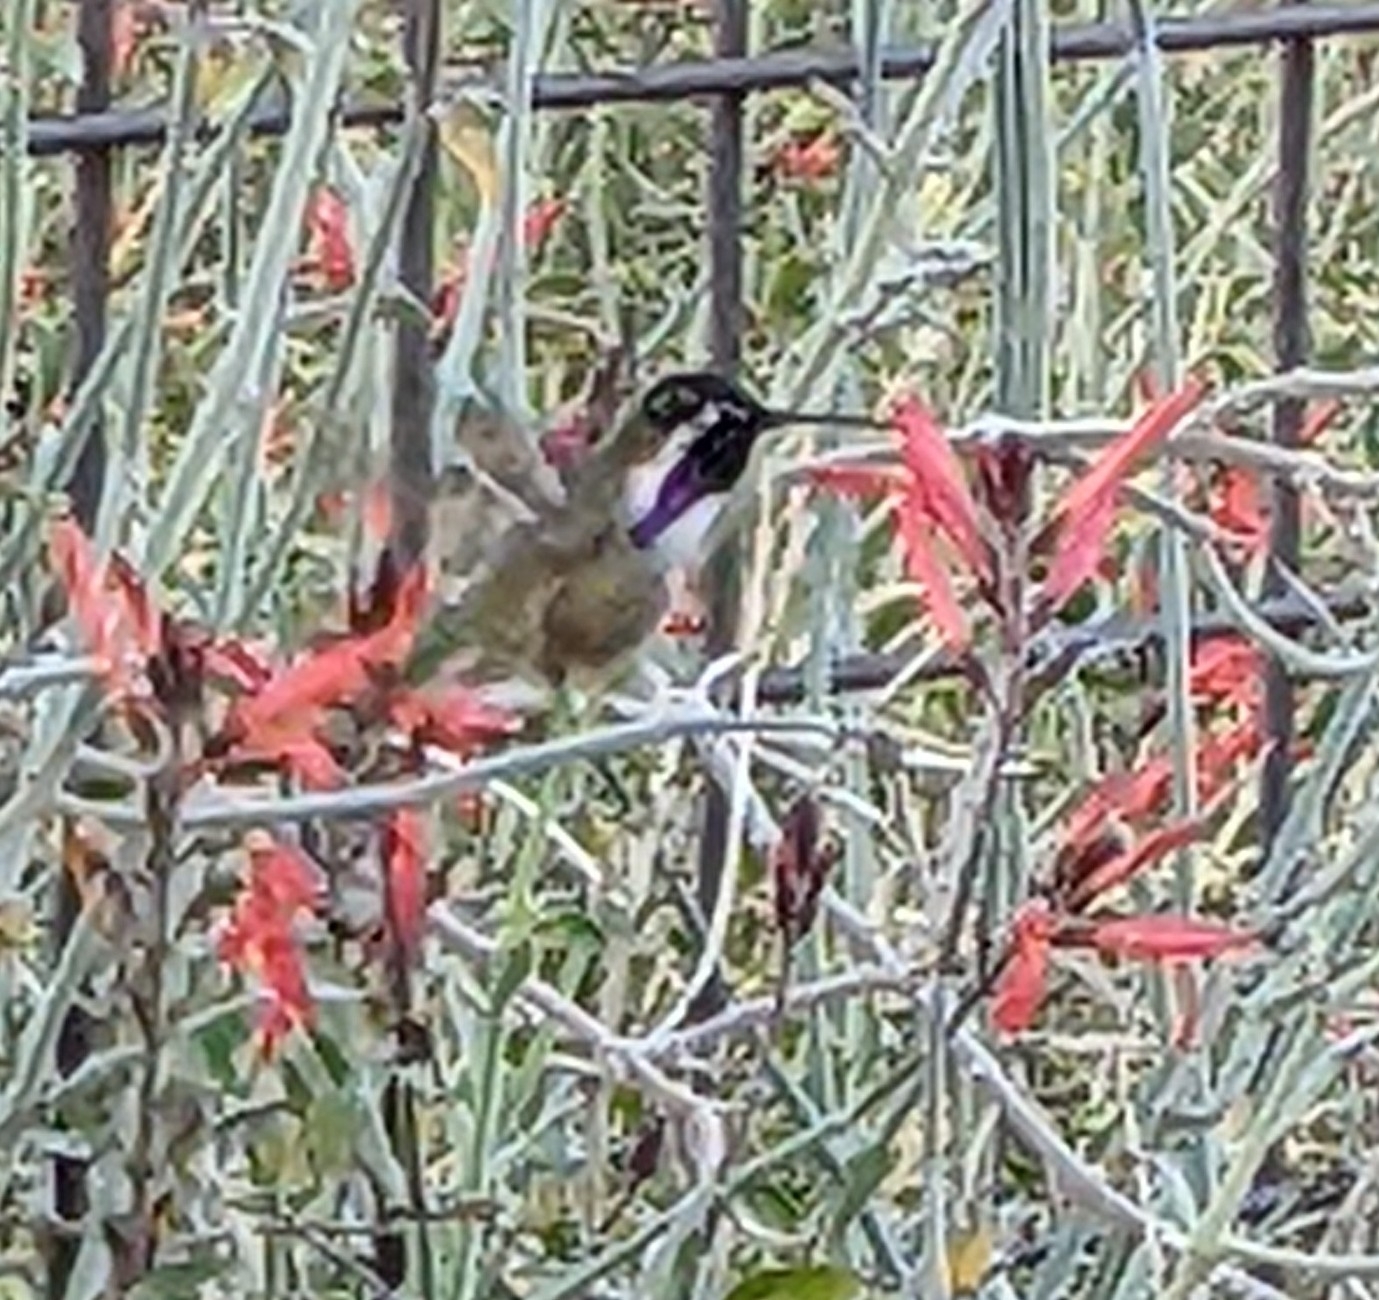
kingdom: Animalia
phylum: Chordata
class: Aves
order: Apodiformes
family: Trochilidae
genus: Calypte
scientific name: Calypte costae
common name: Costa's hummingbird
